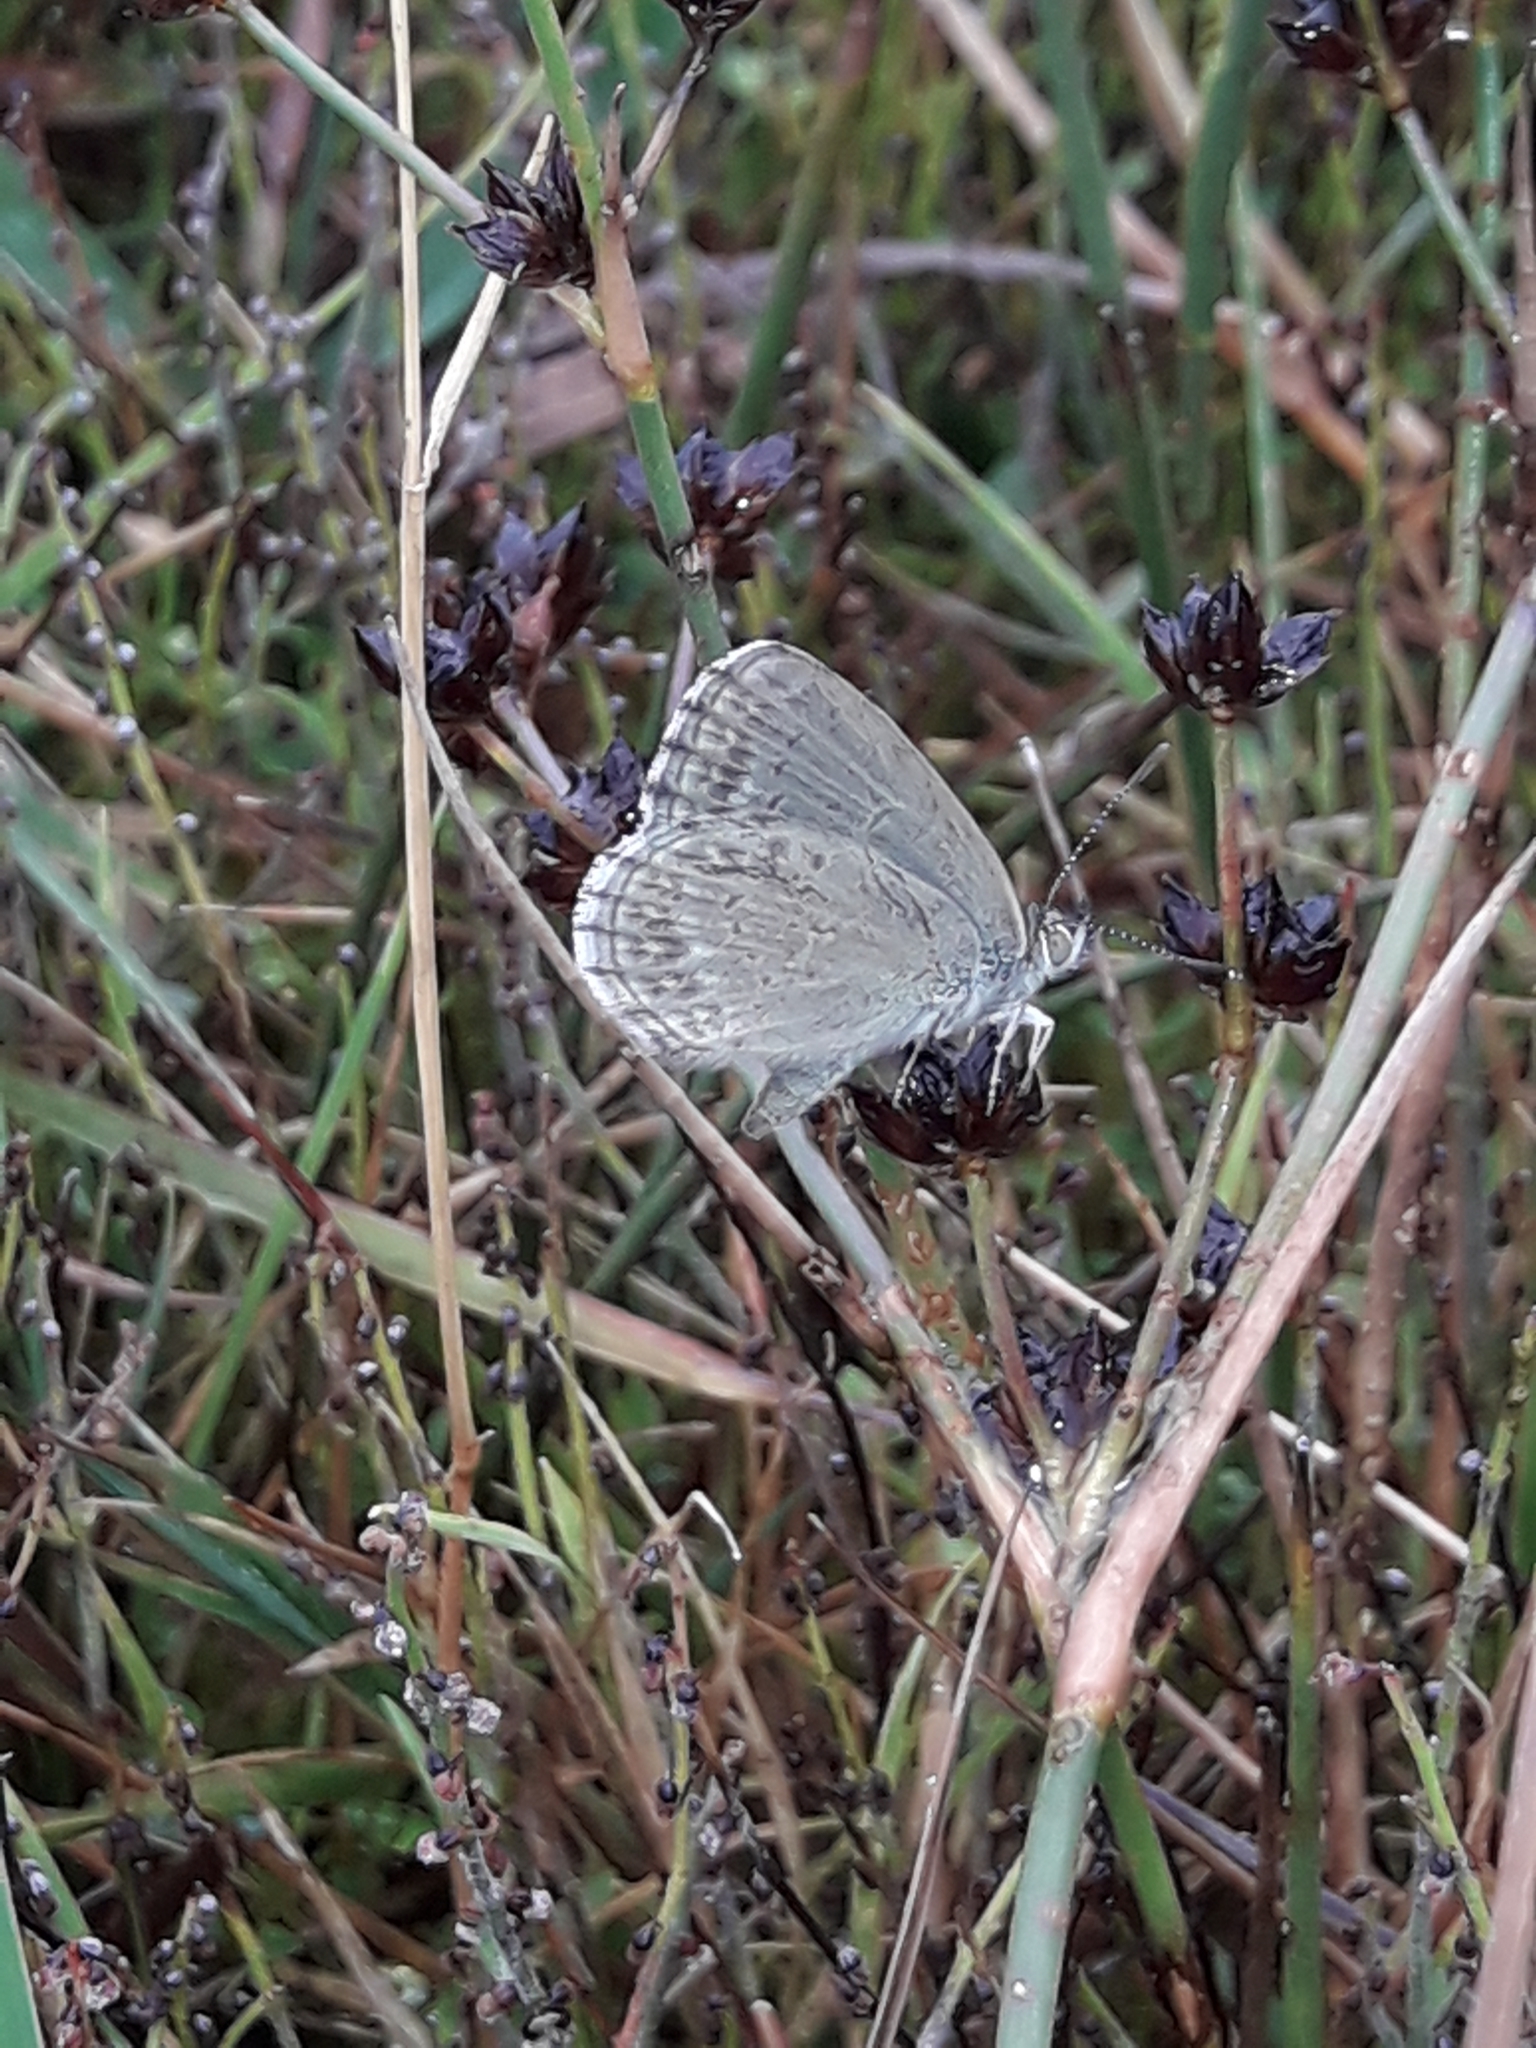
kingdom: Animalia
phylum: Arthropoda
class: Insecta
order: Lepidoptera
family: Lycaenidae
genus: Zizina
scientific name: Zizina labradus
